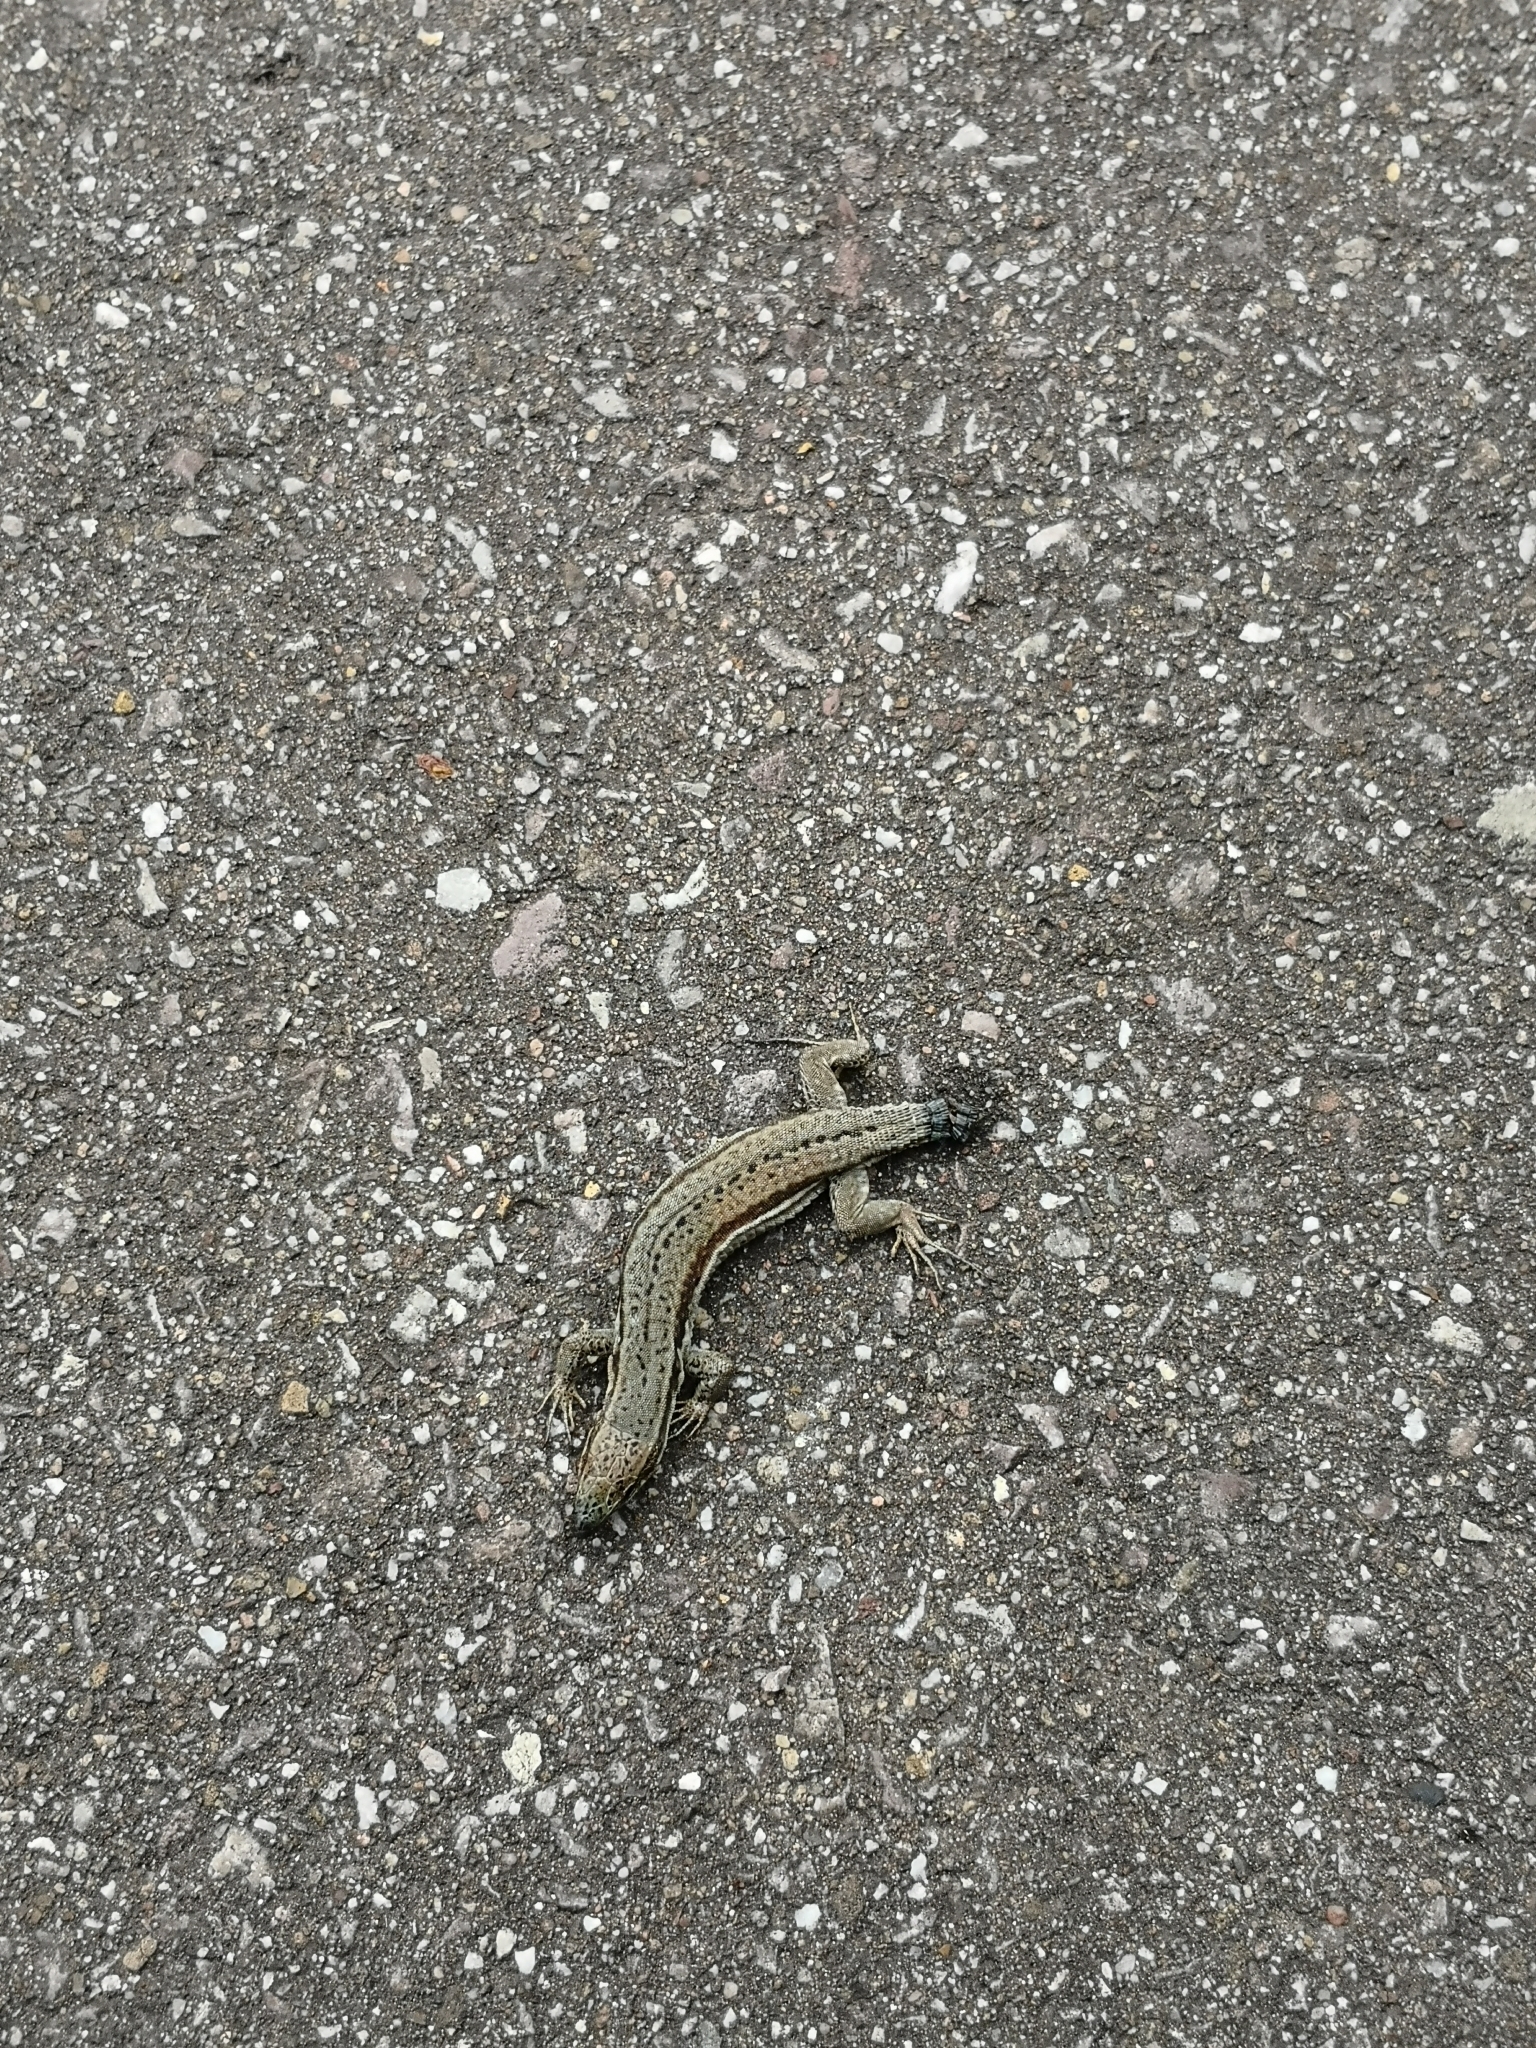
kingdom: Animalia
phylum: Chordata
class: Squamata
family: Lacertidae
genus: Podarcis
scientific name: Podarcis muralis
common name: Common wall lizard
